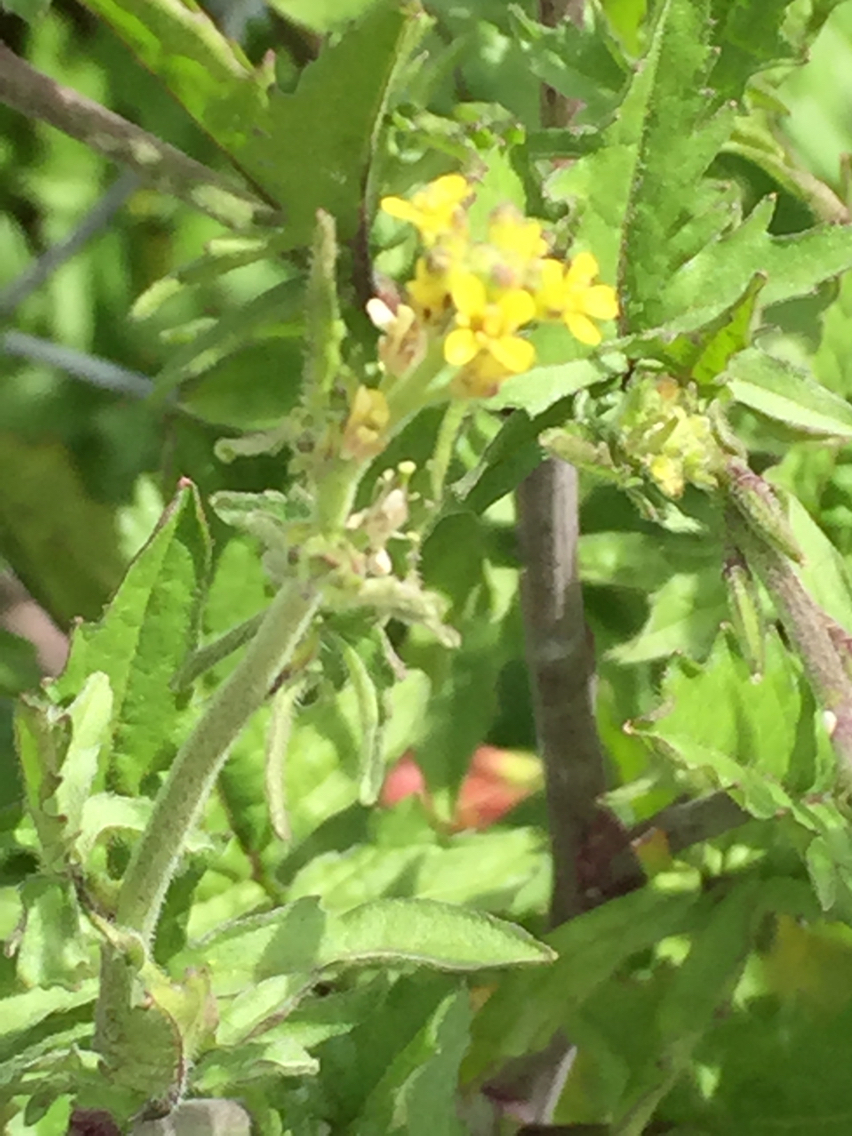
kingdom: Plantae
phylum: Tracheophyta
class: Magnoliopsida
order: Brassicales
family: Brassicaceae
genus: Sisymbrium
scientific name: Sisymbrium officinale
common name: Hedge mustard
